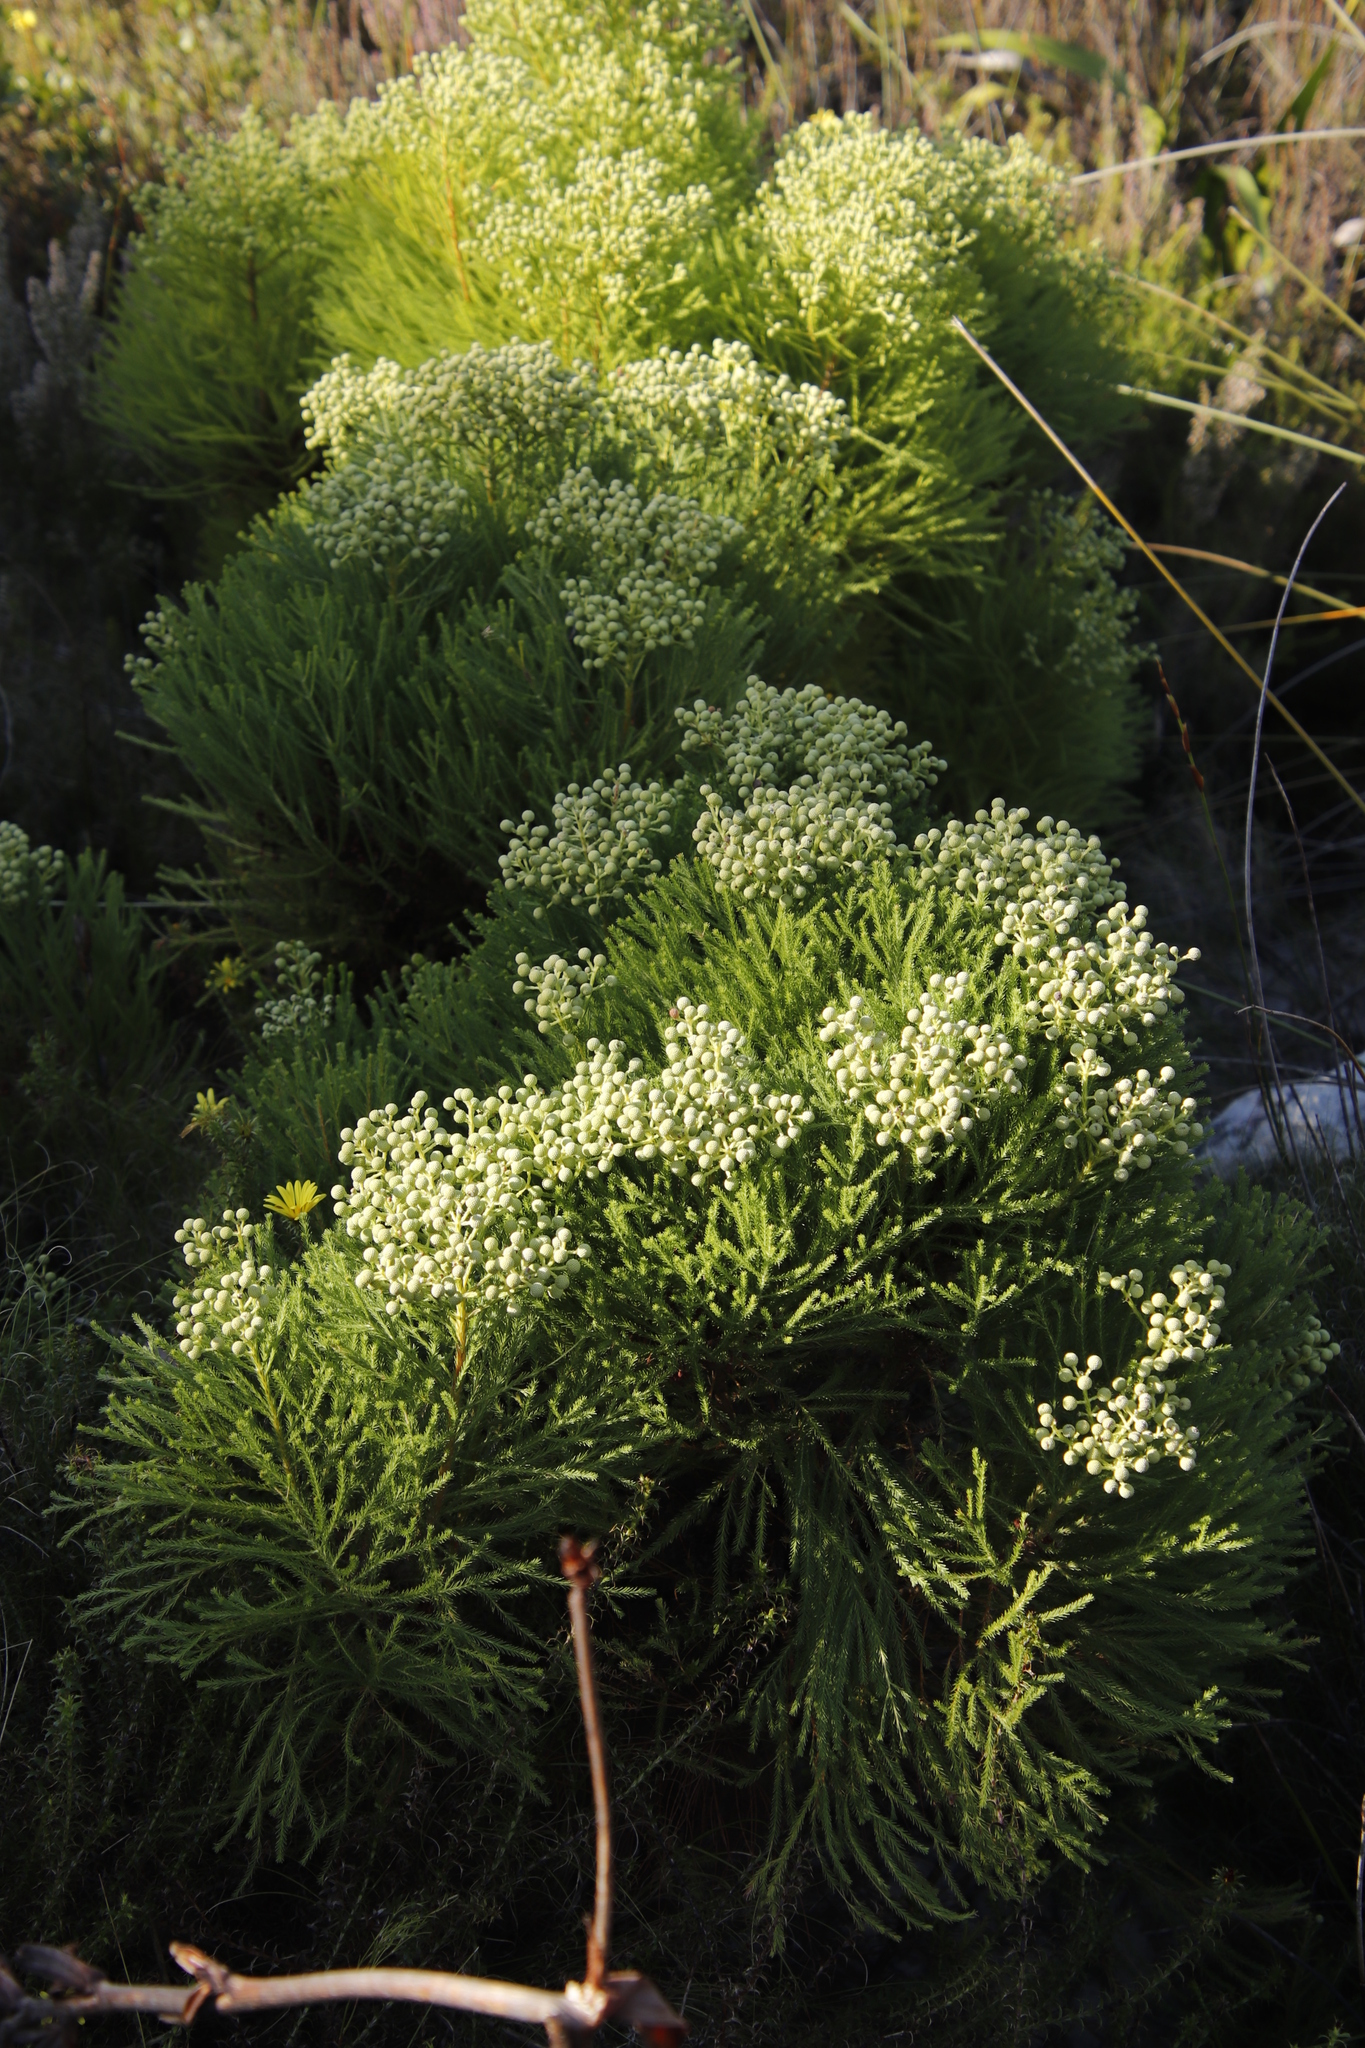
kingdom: Plantae
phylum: Tracheophyta
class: Magnoliopsida
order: Bruniales
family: Bruniaceae
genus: Berzelia
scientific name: Berzelia lanuginosa
